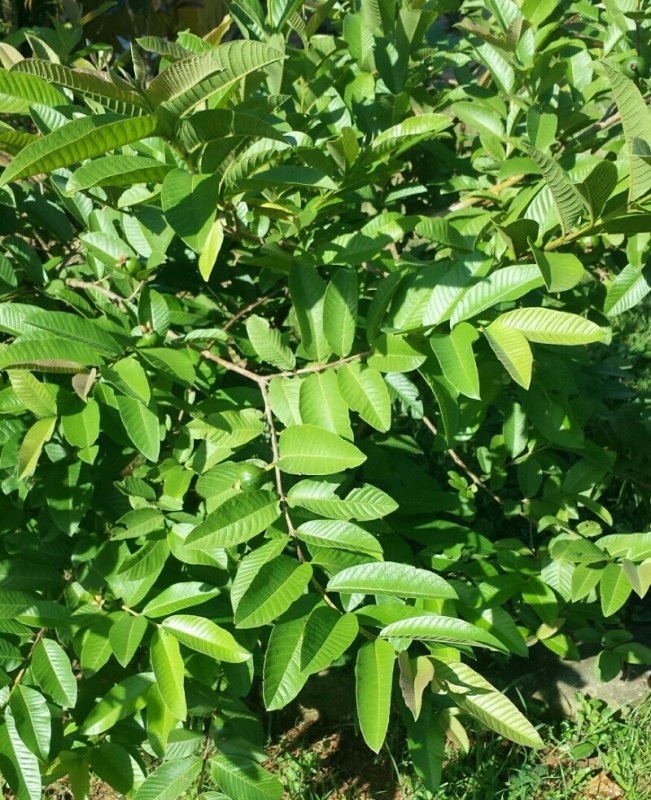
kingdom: Plantae
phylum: Tracheophyta
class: Magnoliopsida
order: Myrtales
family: Myrtaceae
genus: Psidium
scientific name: Psidium guajava
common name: Guava
